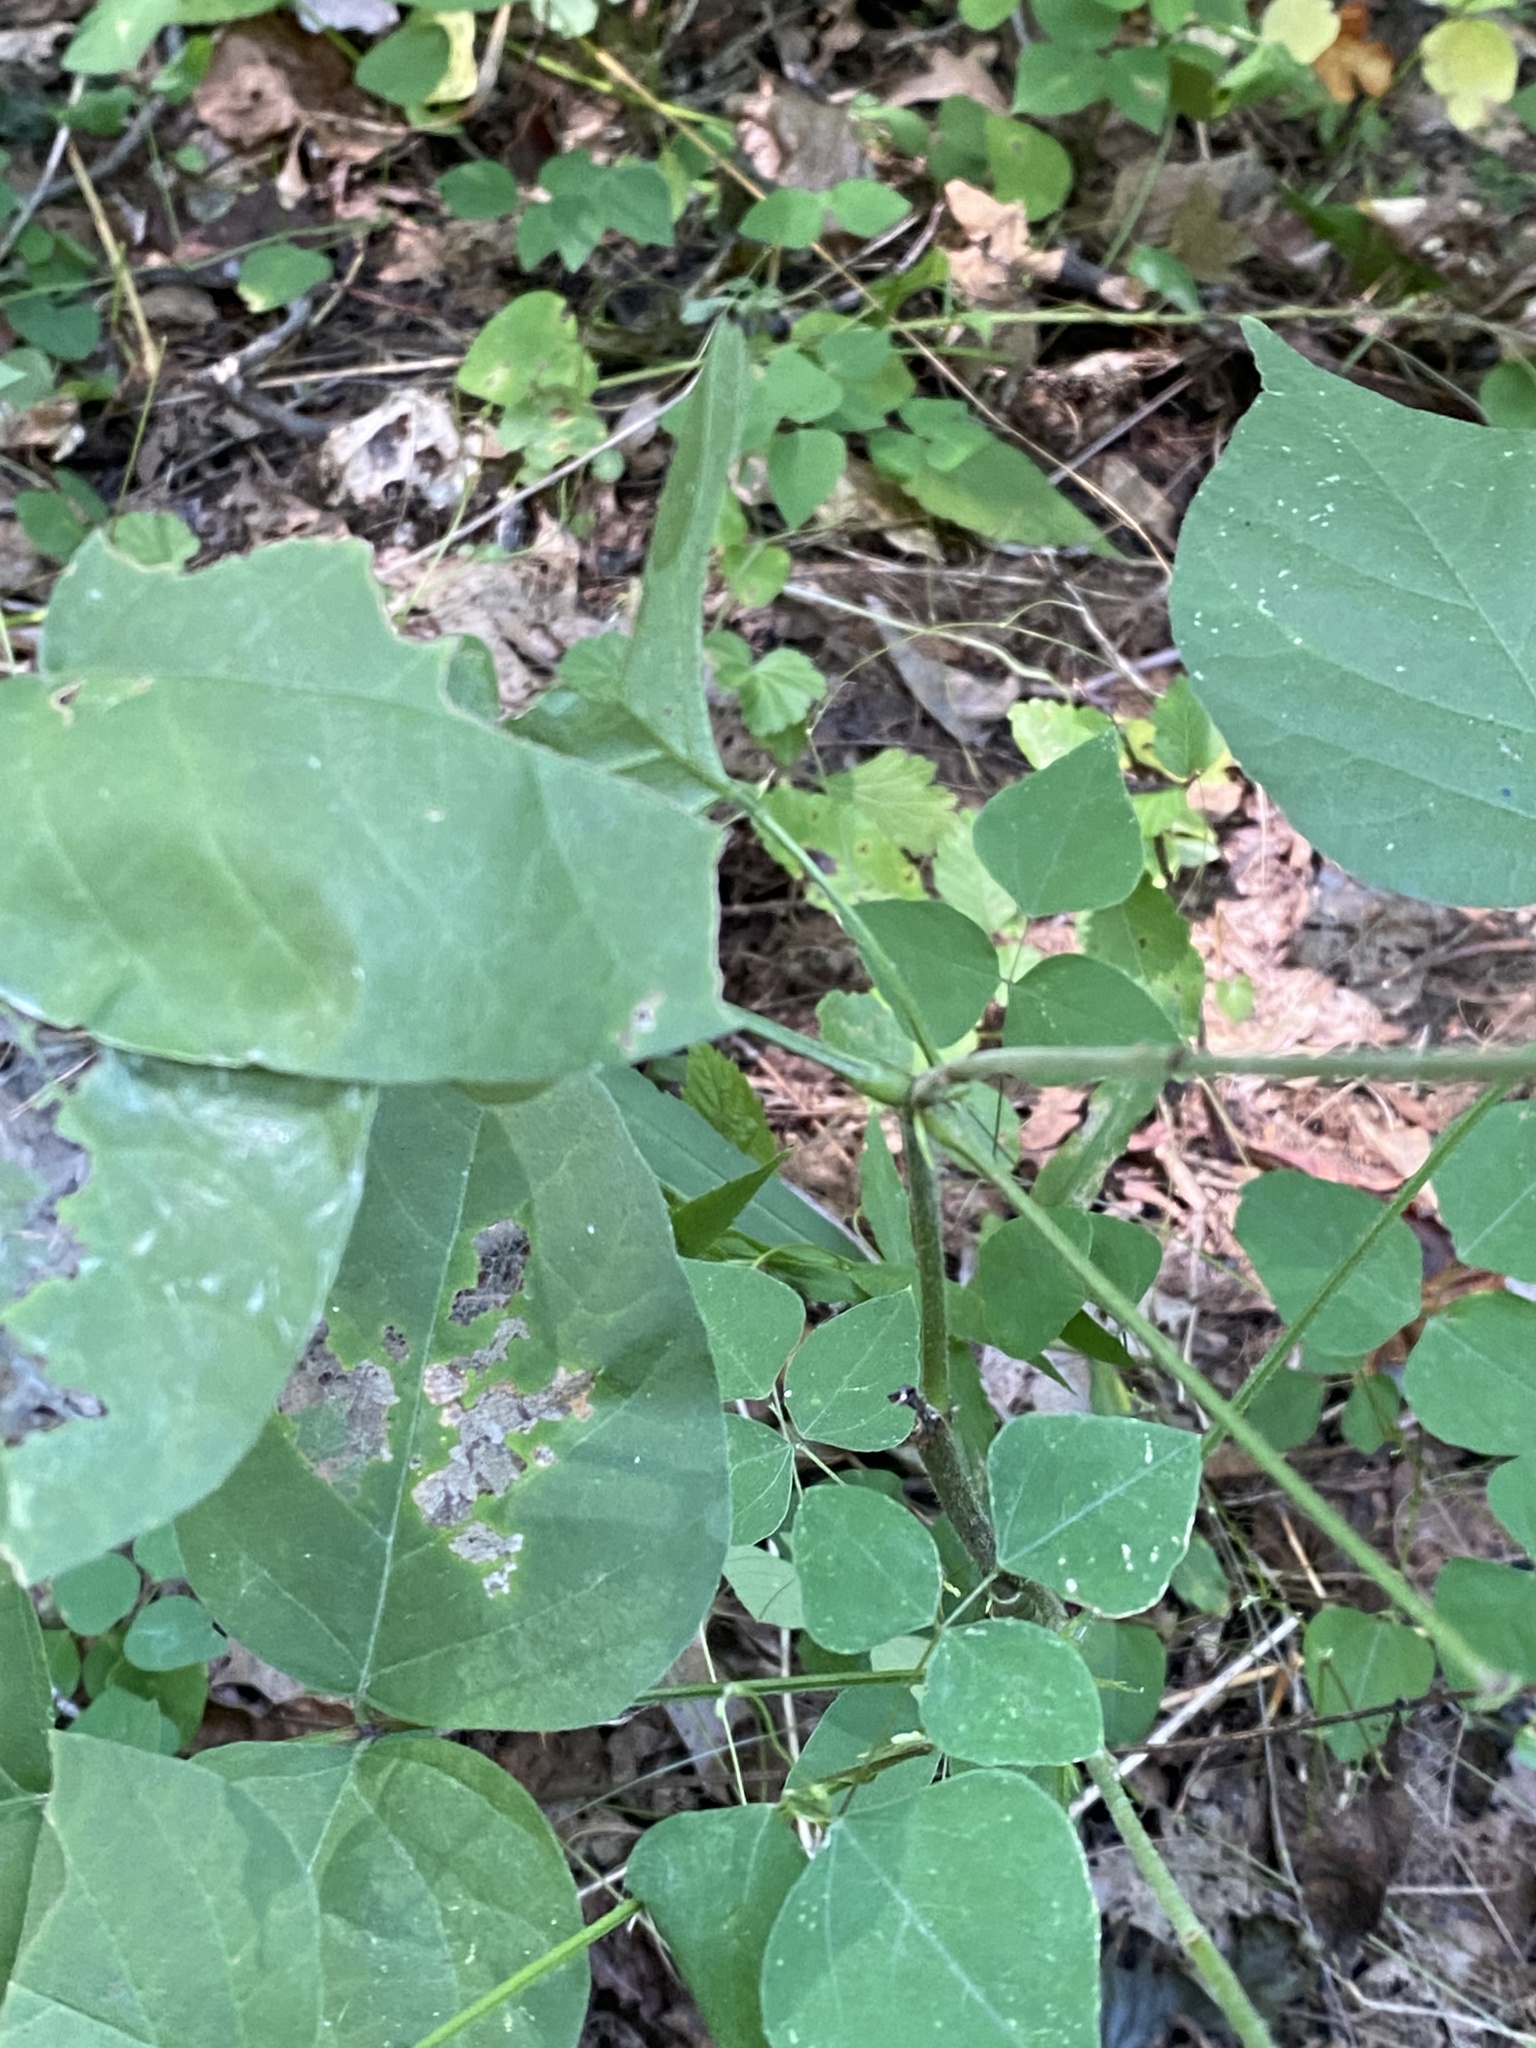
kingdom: Plantae
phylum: Tracheophyta
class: Magnoliopsida
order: Fabales
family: Fabaceae
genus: Hylodesmum
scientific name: Hylodesmum glutinosum
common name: Clustered-leaved tick-trefoil
